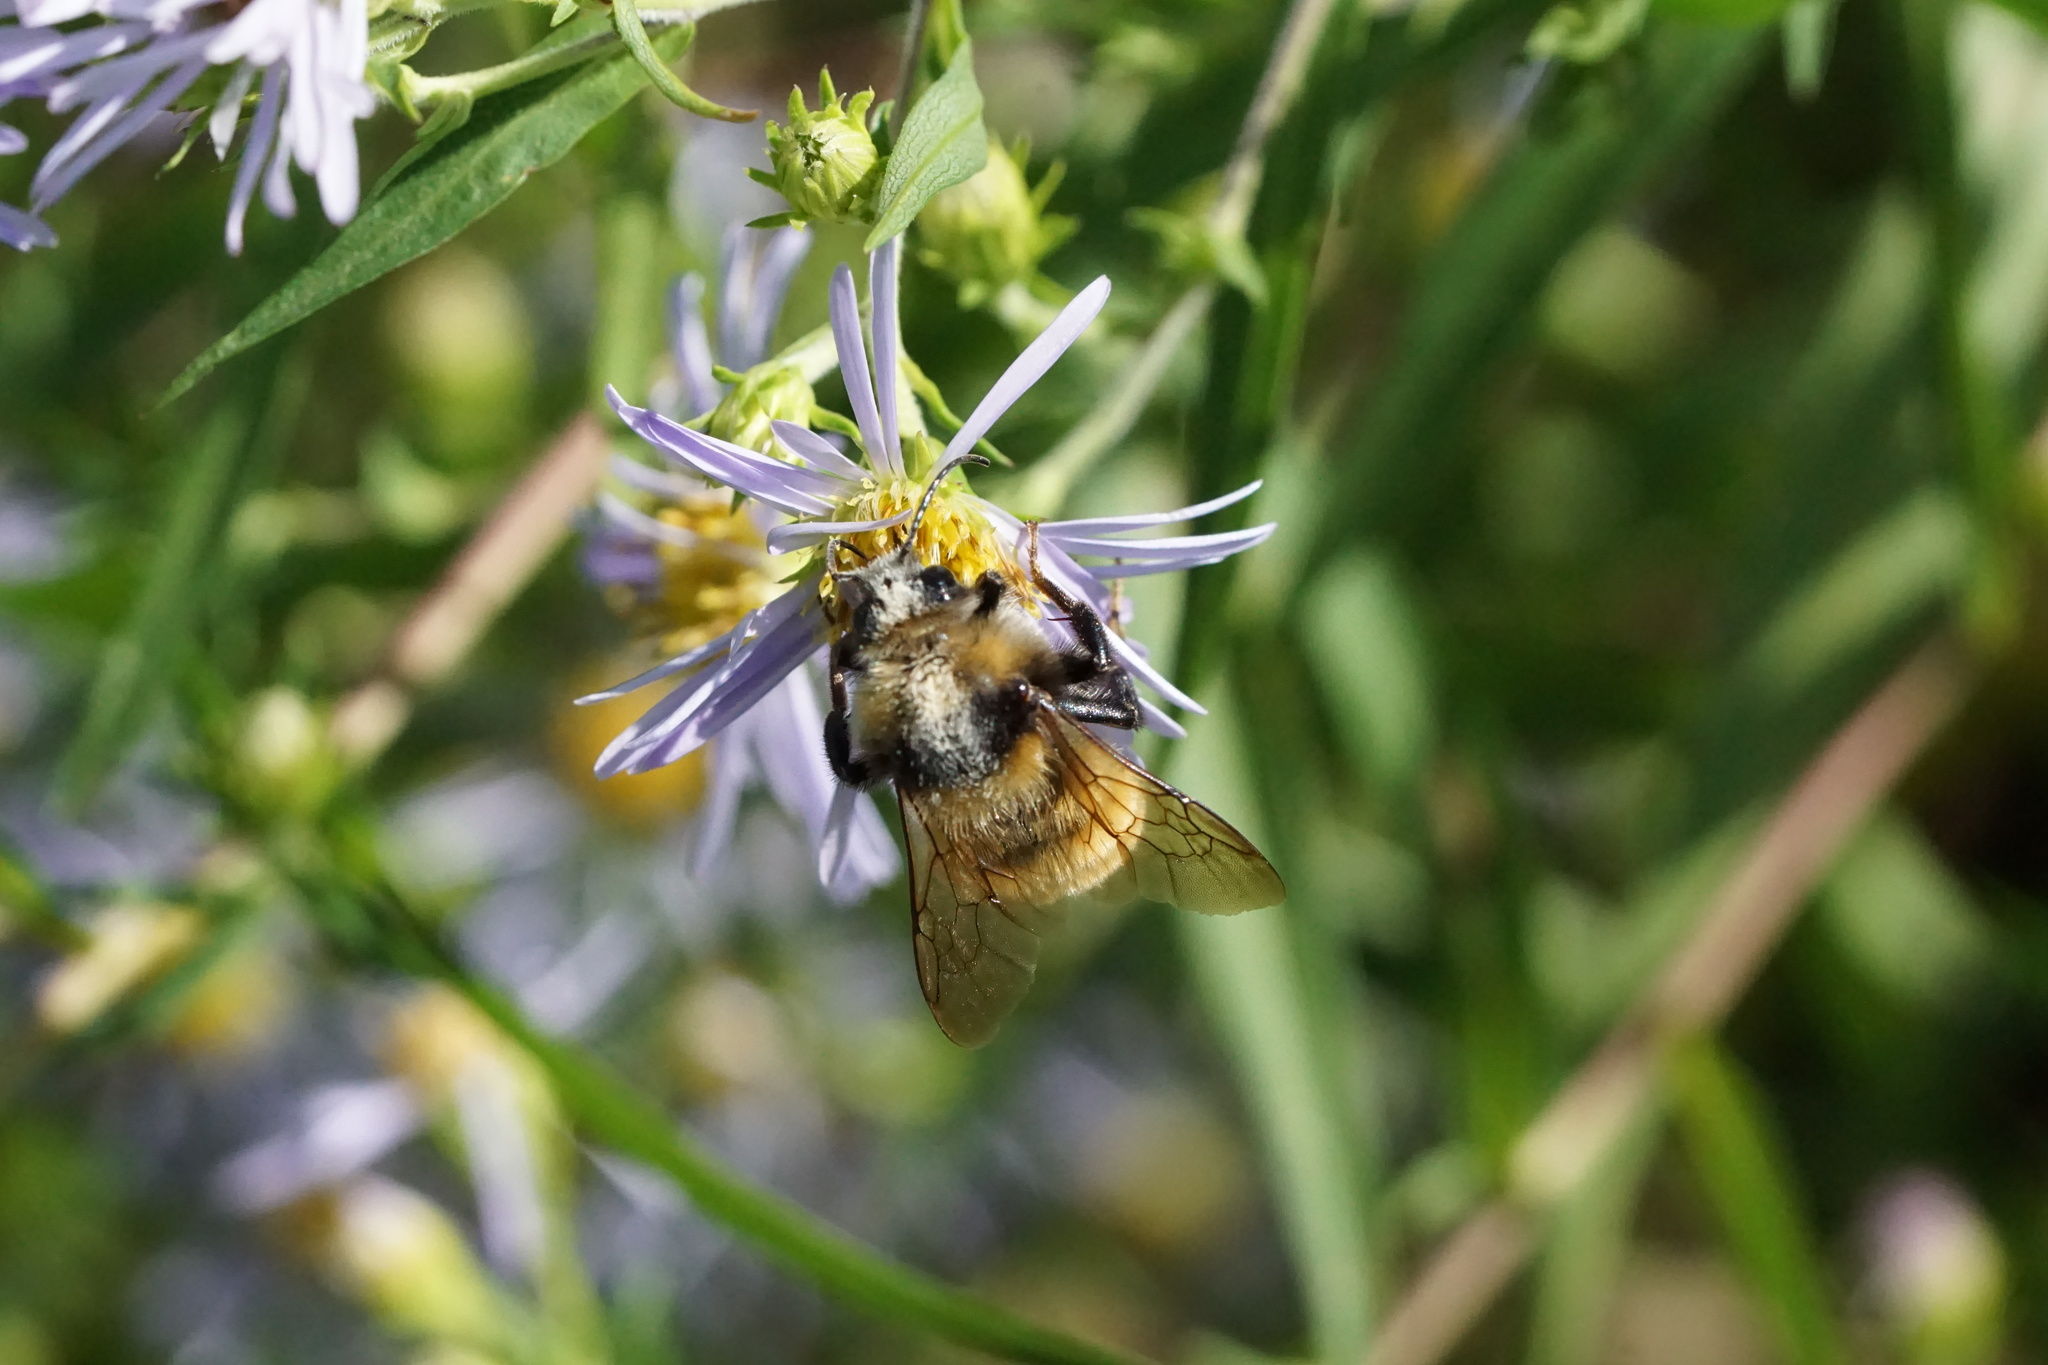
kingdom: Animalia
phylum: Arthropoda
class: Insecta
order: Hymenoptera
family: Apidae
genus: Bombus
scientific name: Bombus borealis
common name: Northern amber bumble bee
